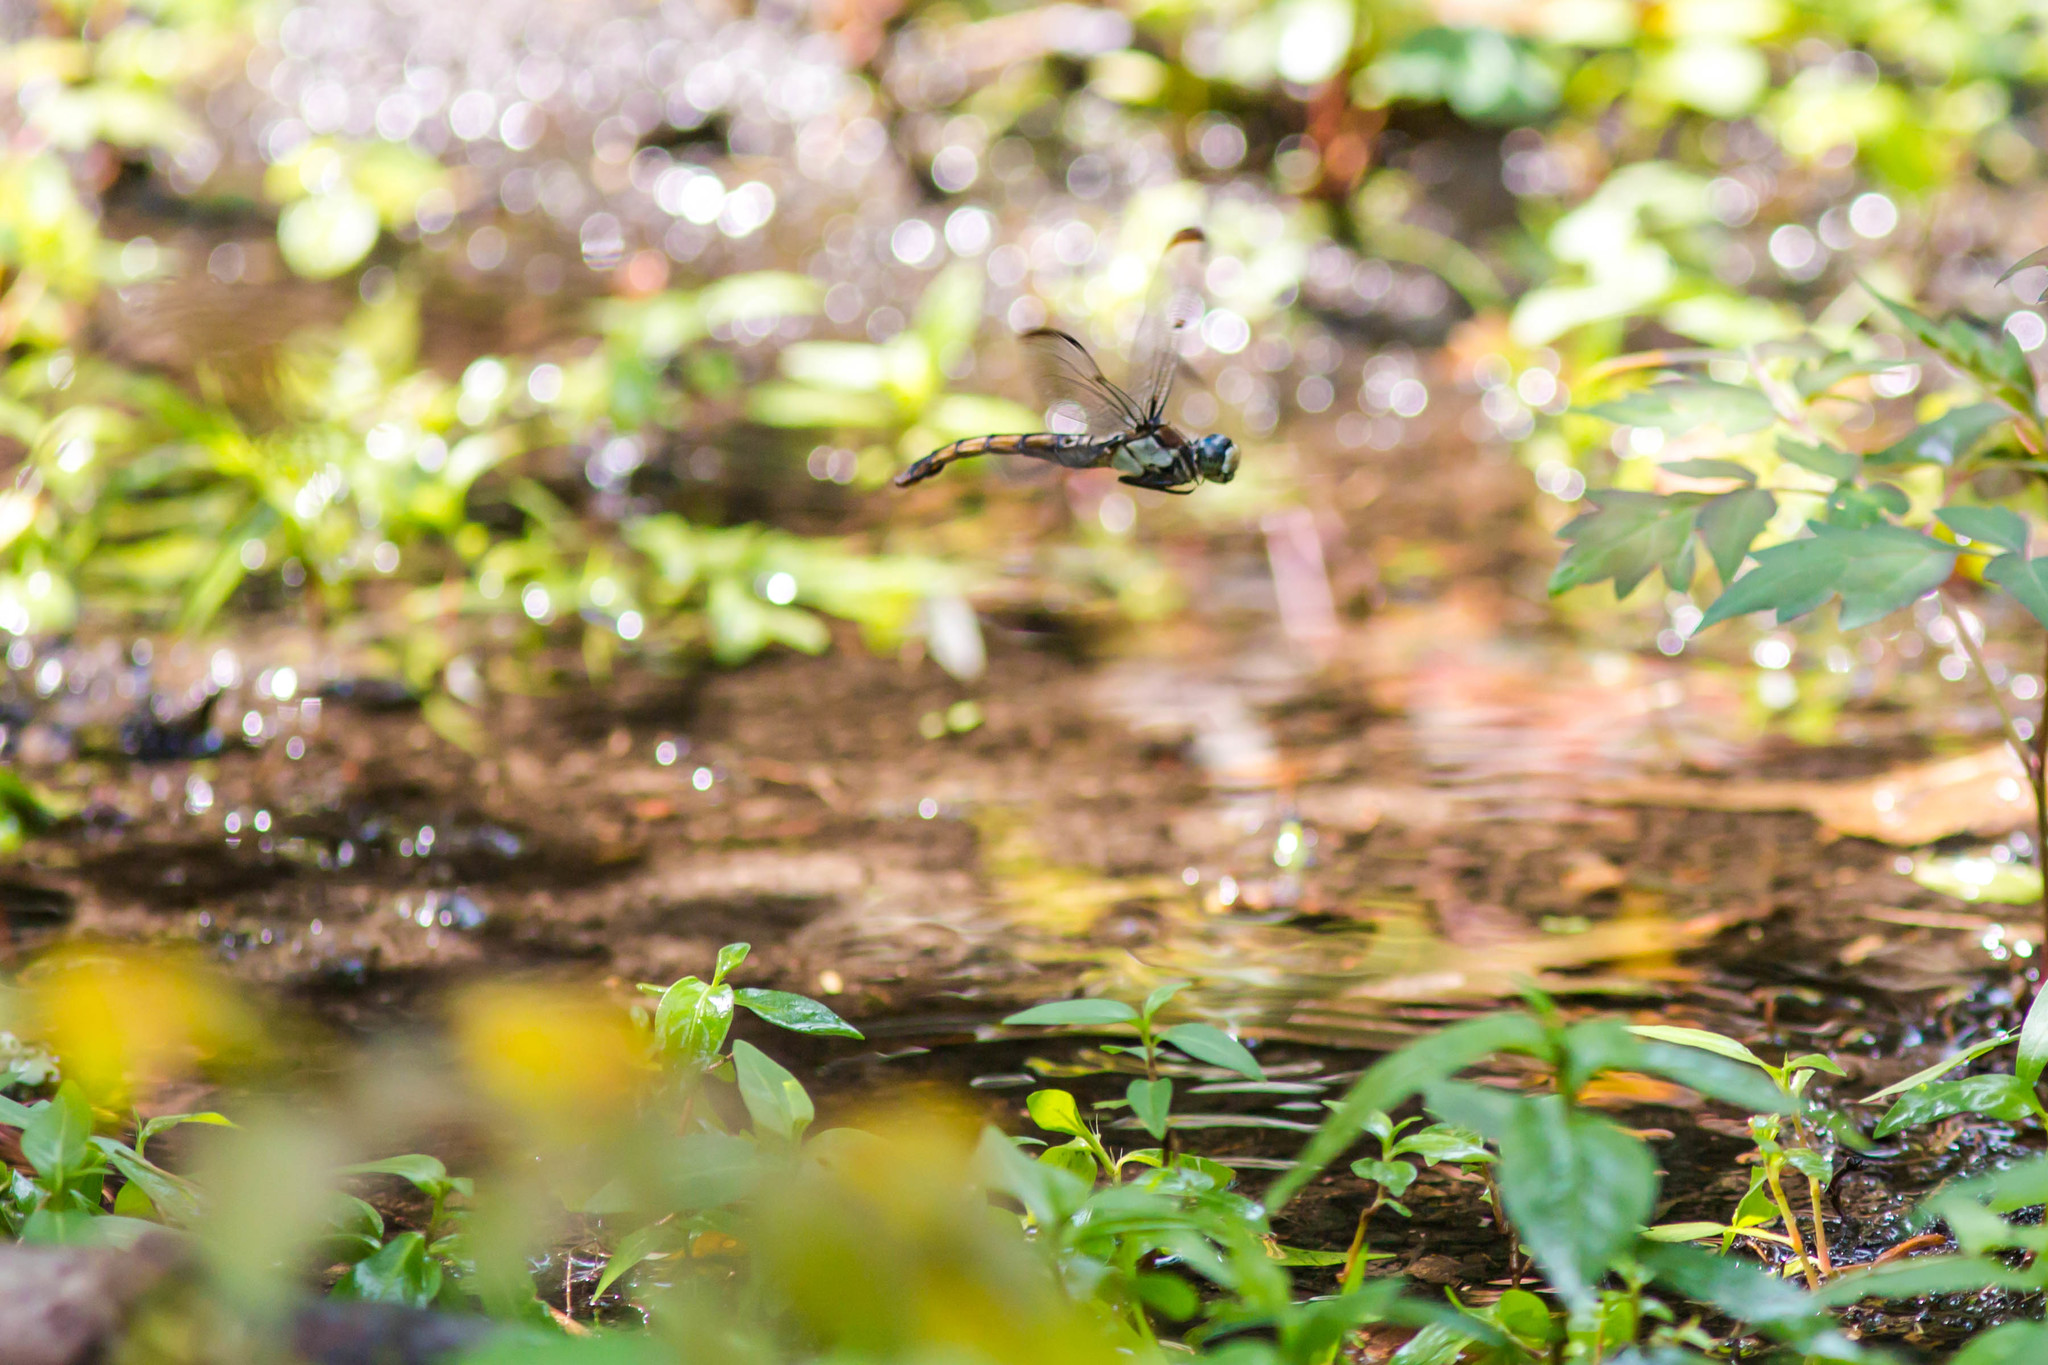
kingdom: Animalia
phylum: Arthropoda
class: Insecta
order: Odonata
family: Libellulidae
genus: Libellula
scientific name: Libellula vibrans
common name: Great blue skimmer
